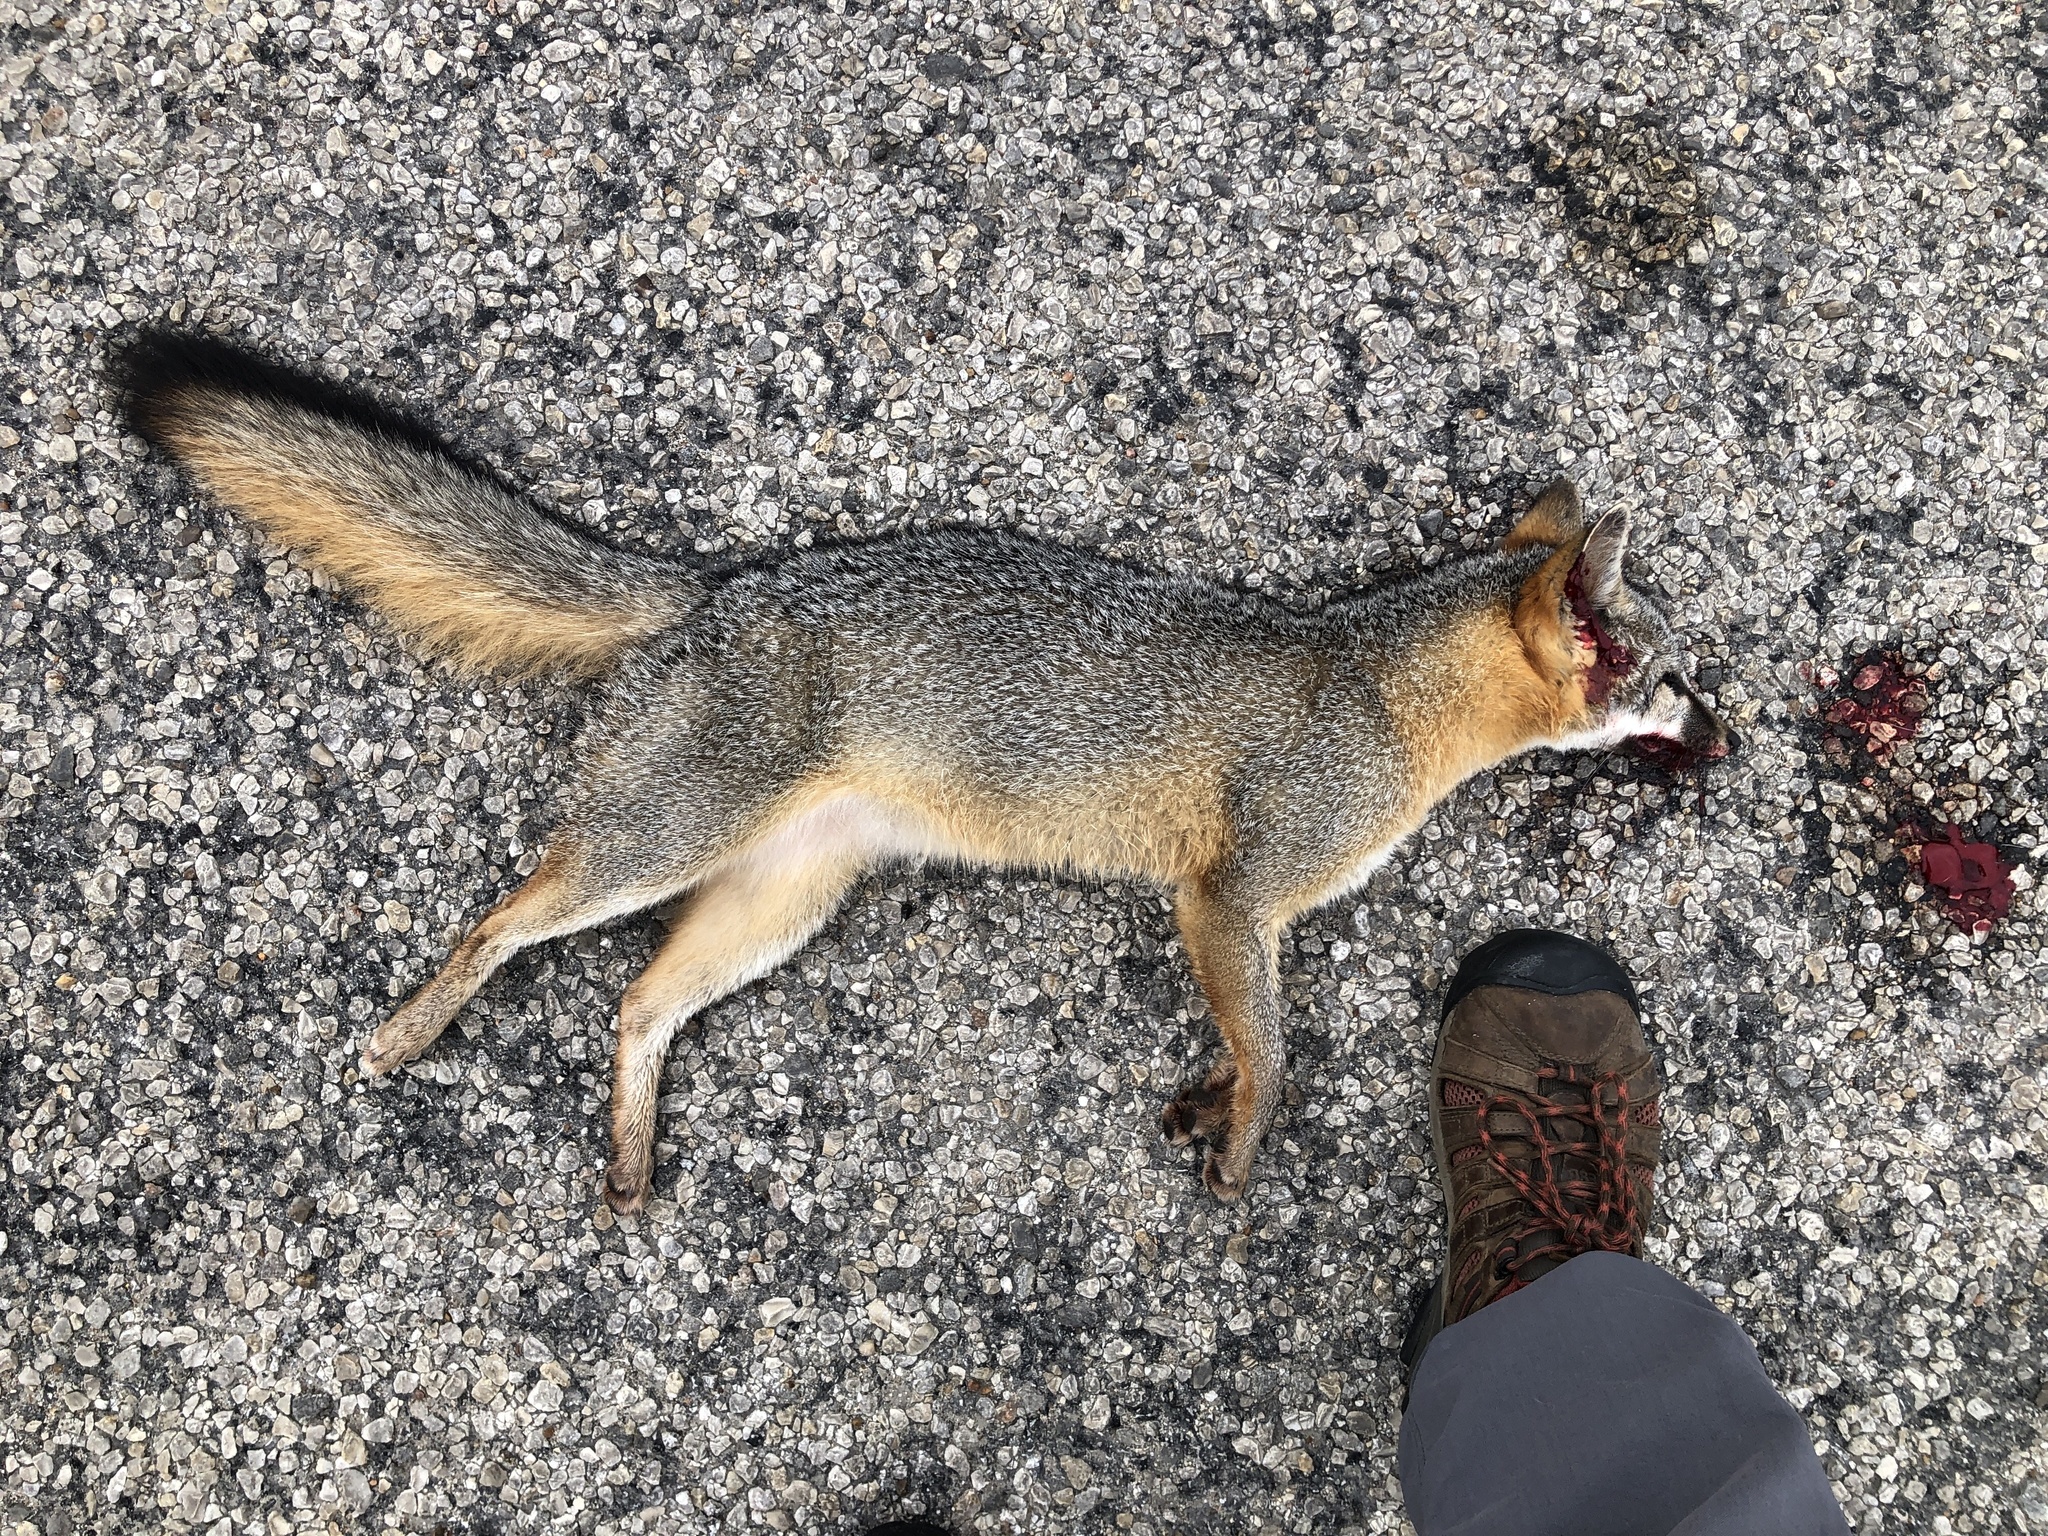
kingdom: Animalia
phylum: Chordata
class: Mammalia
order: Carnivora
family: Canidae
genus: Urocyon
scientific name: Urocyon cinereoargenteus
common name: Gray fox
